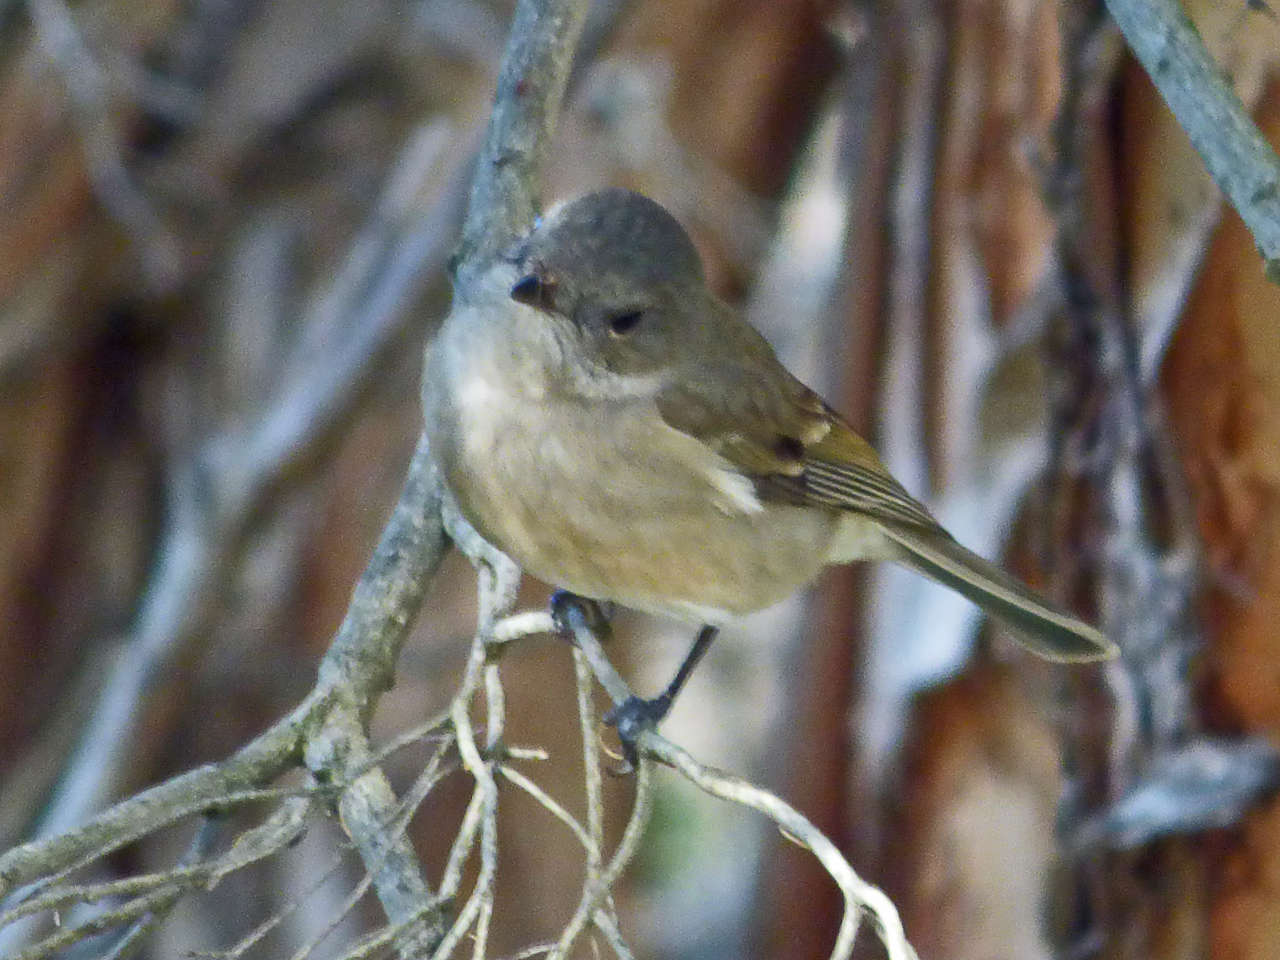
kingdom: Animalia
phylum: Chordata
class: Aves
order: Passeriformes
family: Pachycephalidae
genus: Pachycephala
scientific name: Pachycephala pectoralis
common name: Australian golden whistler
